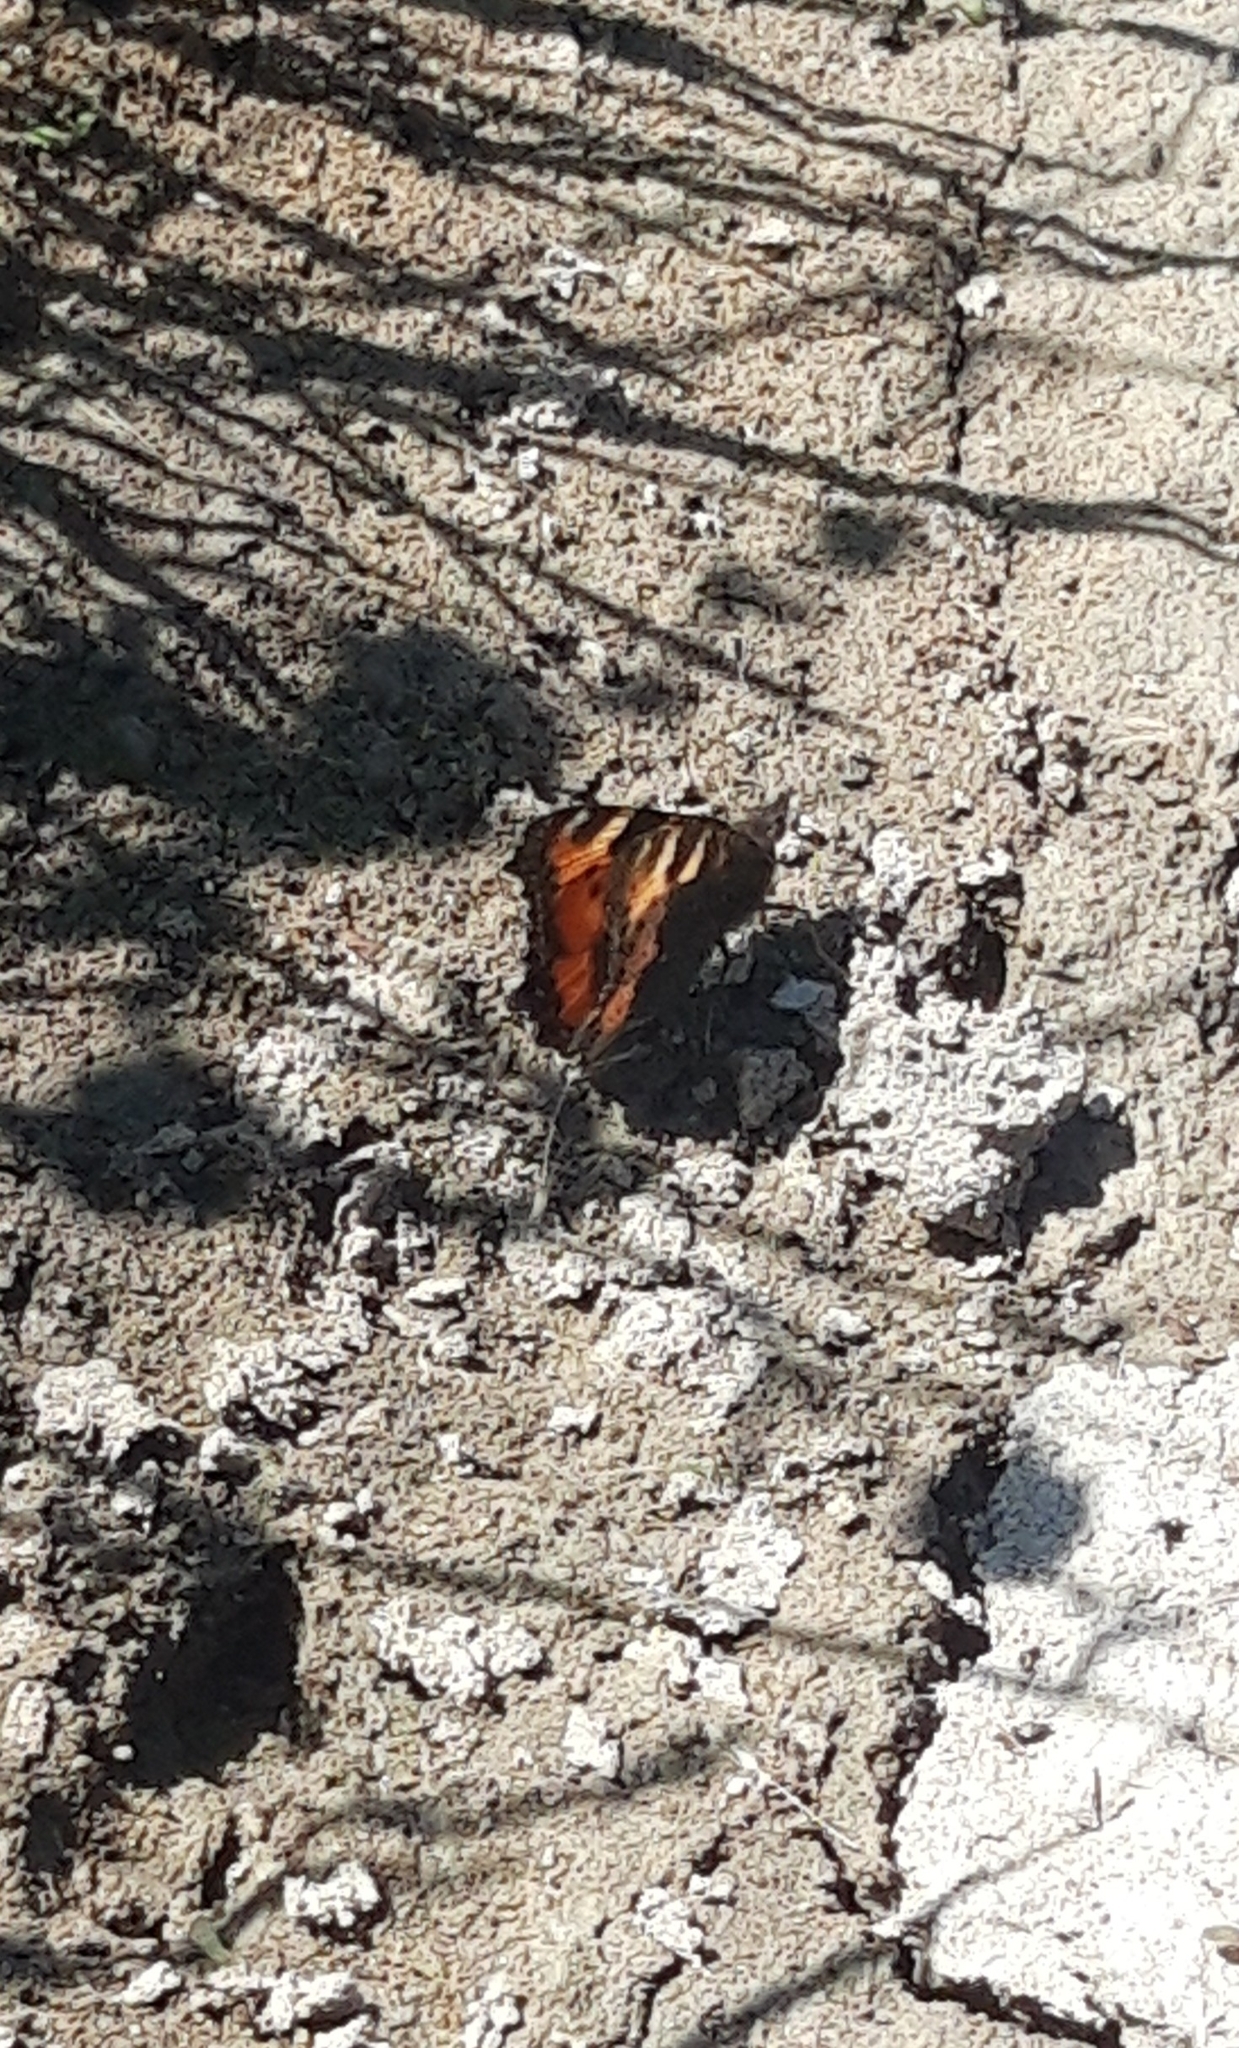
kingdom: Animalia
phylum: Arthropoda
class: Insecta
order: Lepidoptera
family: Nymphalidae
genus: Aglais
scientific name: Aglais urticae
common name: Small tortoiseshell
